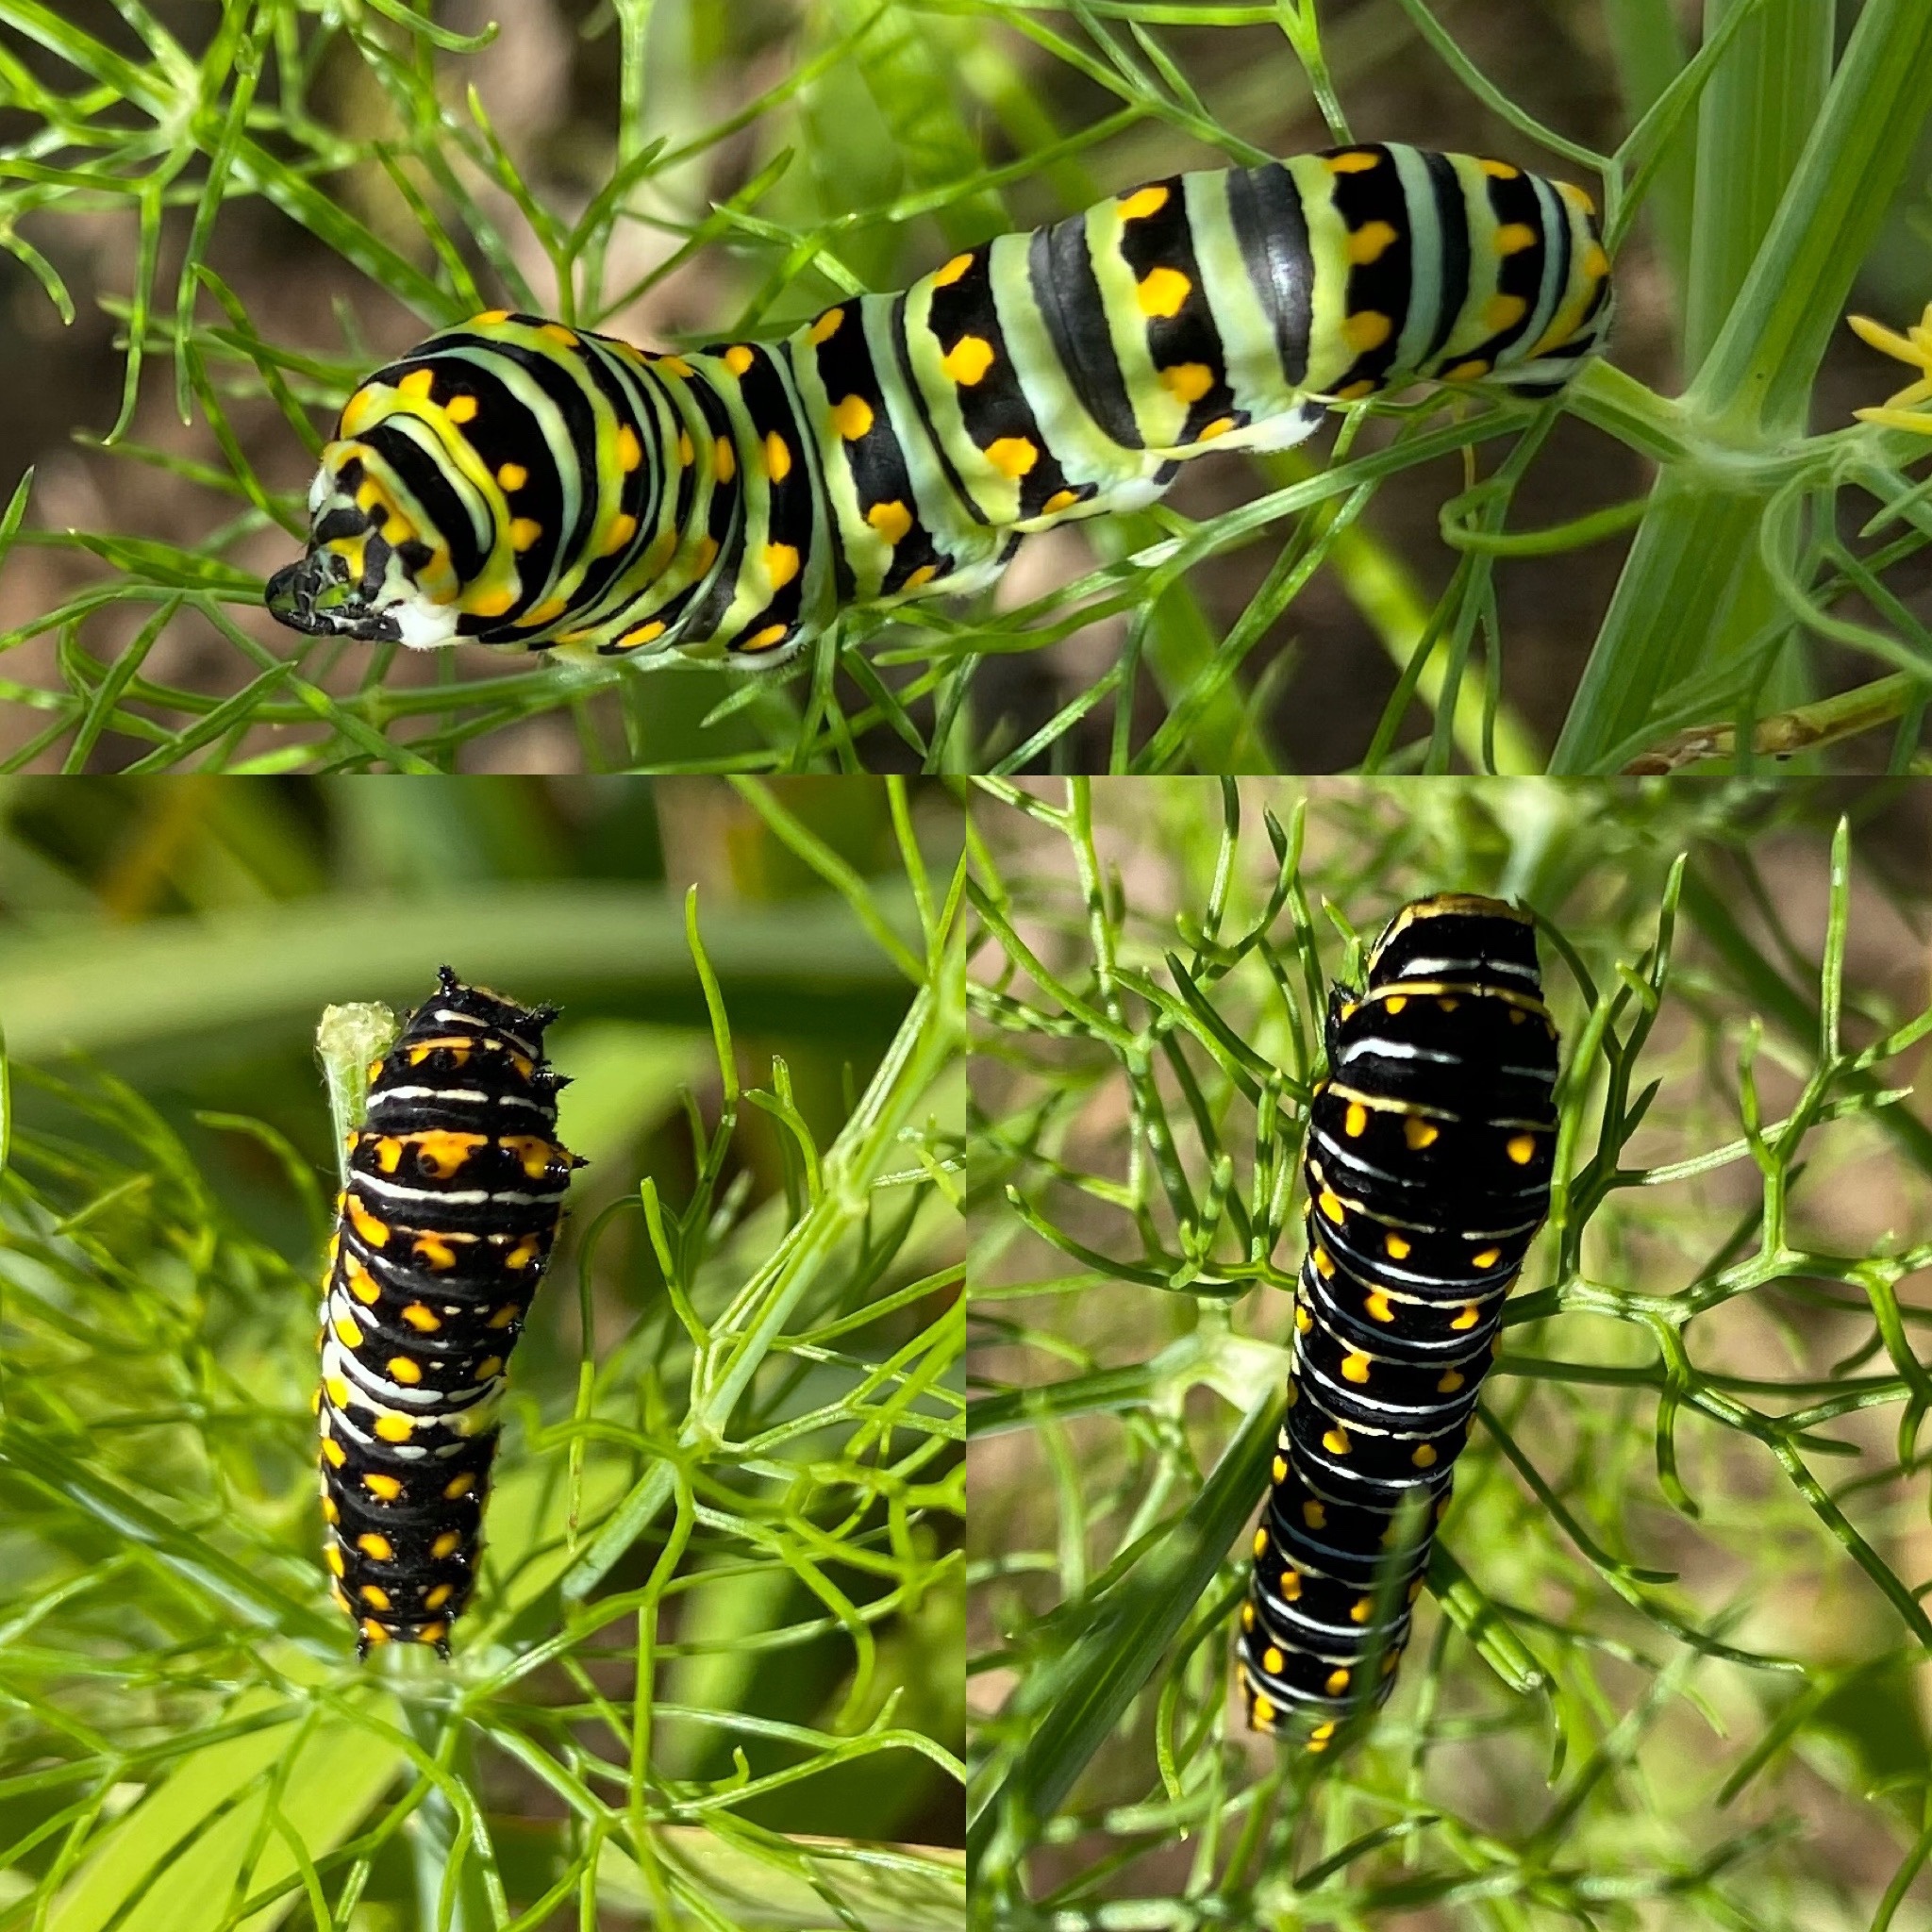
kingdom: Animalia
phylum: Arthropoda
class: Insecta
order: Lepidoptera
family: Papilionidae
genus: Papilio
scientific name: Papilio polyxenes
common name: Black swallowtail
